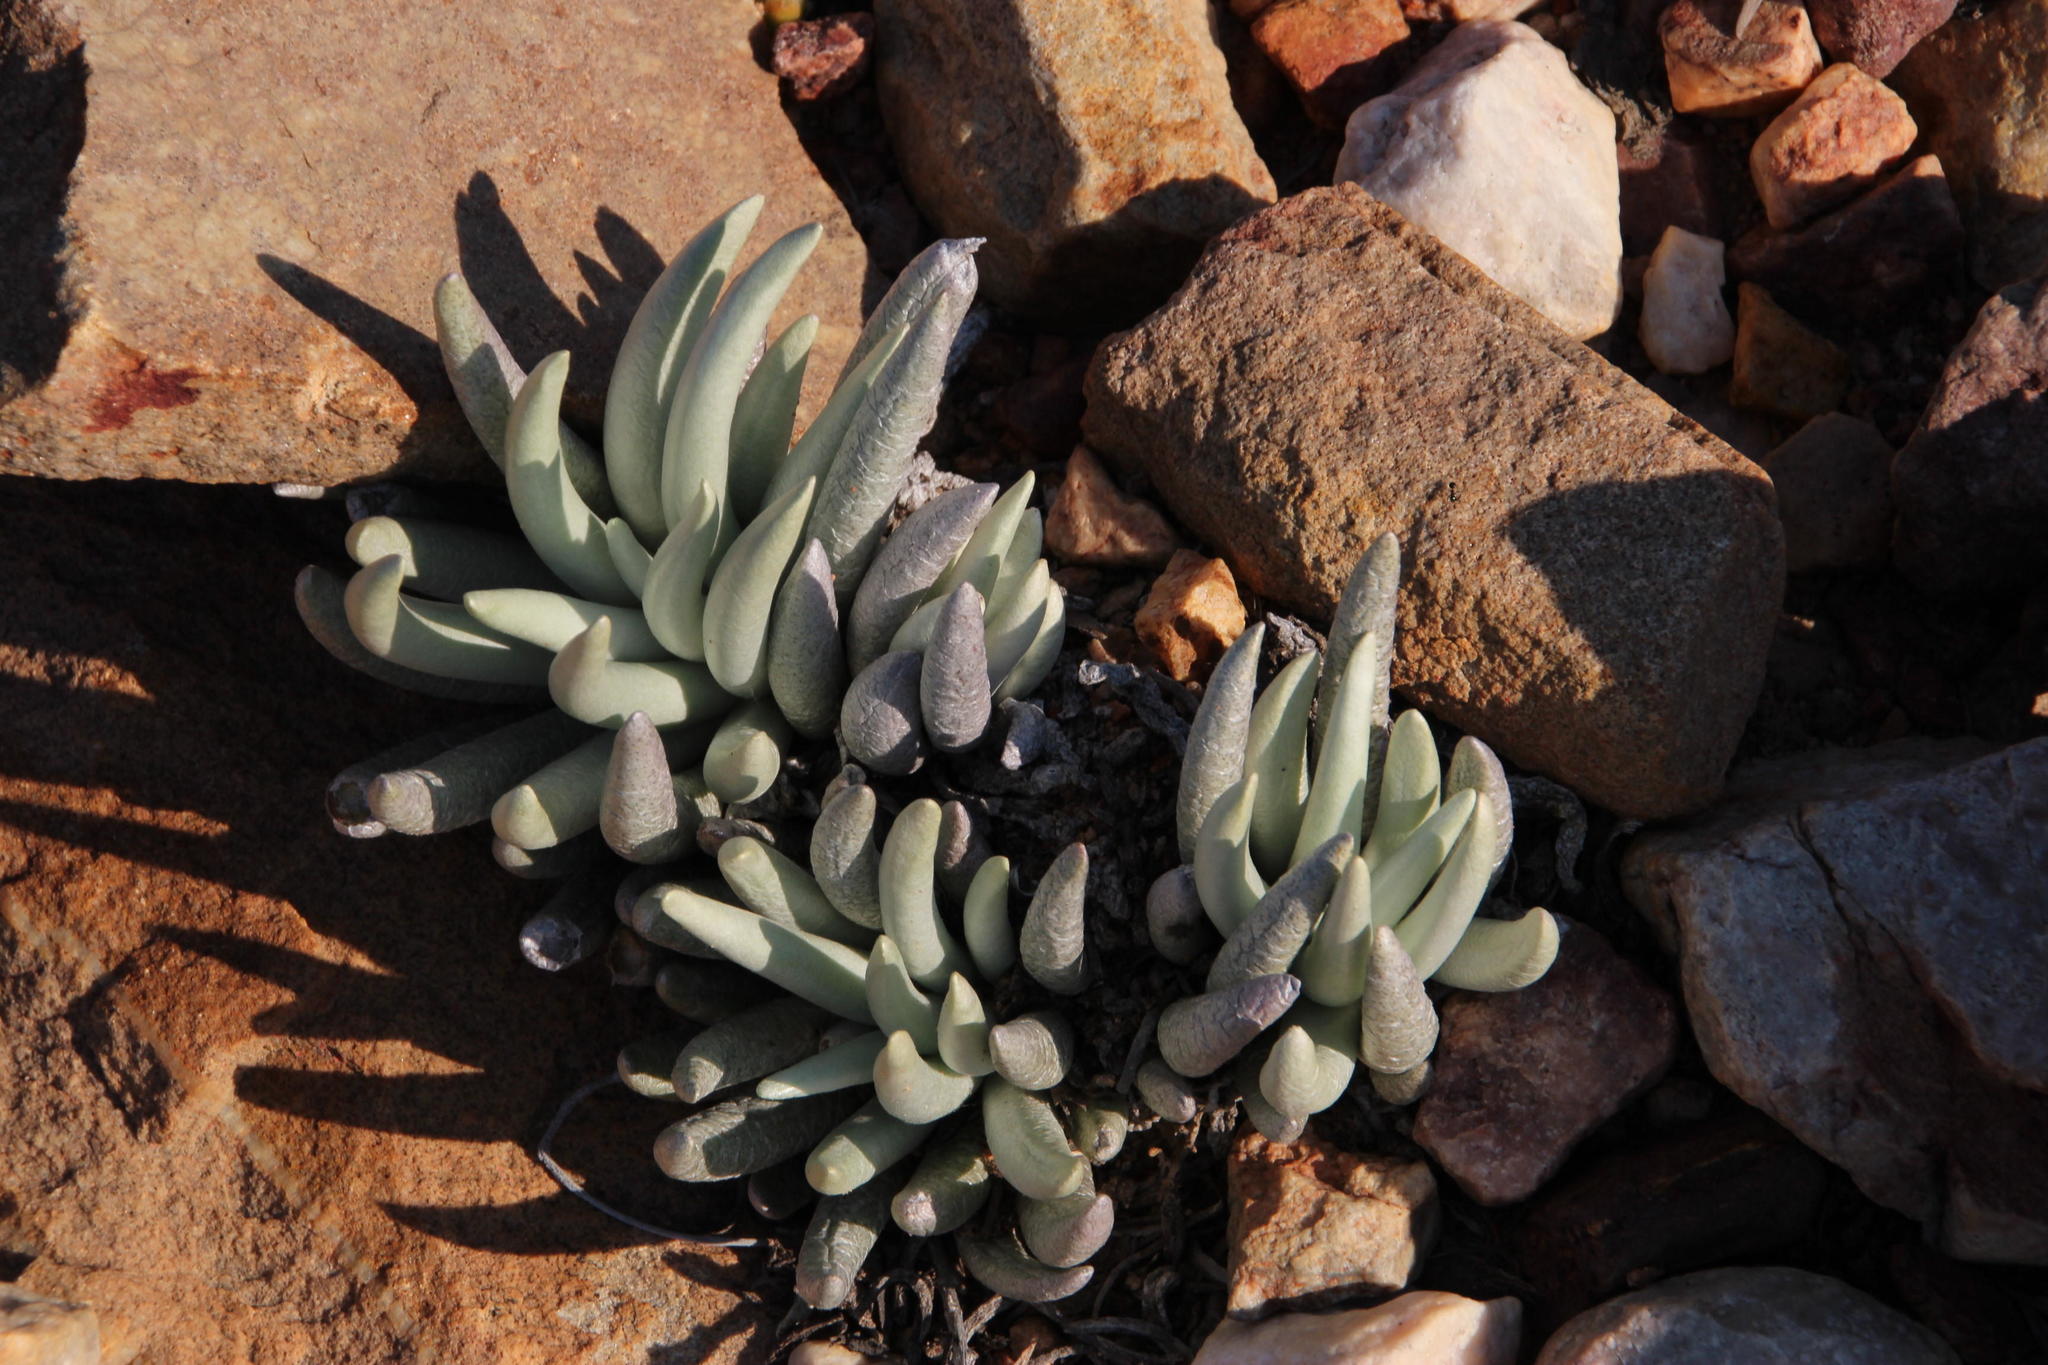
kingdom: Plantae
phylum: Tracheophyta
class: Magnoliopsida
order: Asterales
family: Asteraceae
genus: Caputia
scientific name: Caputia scaposa
